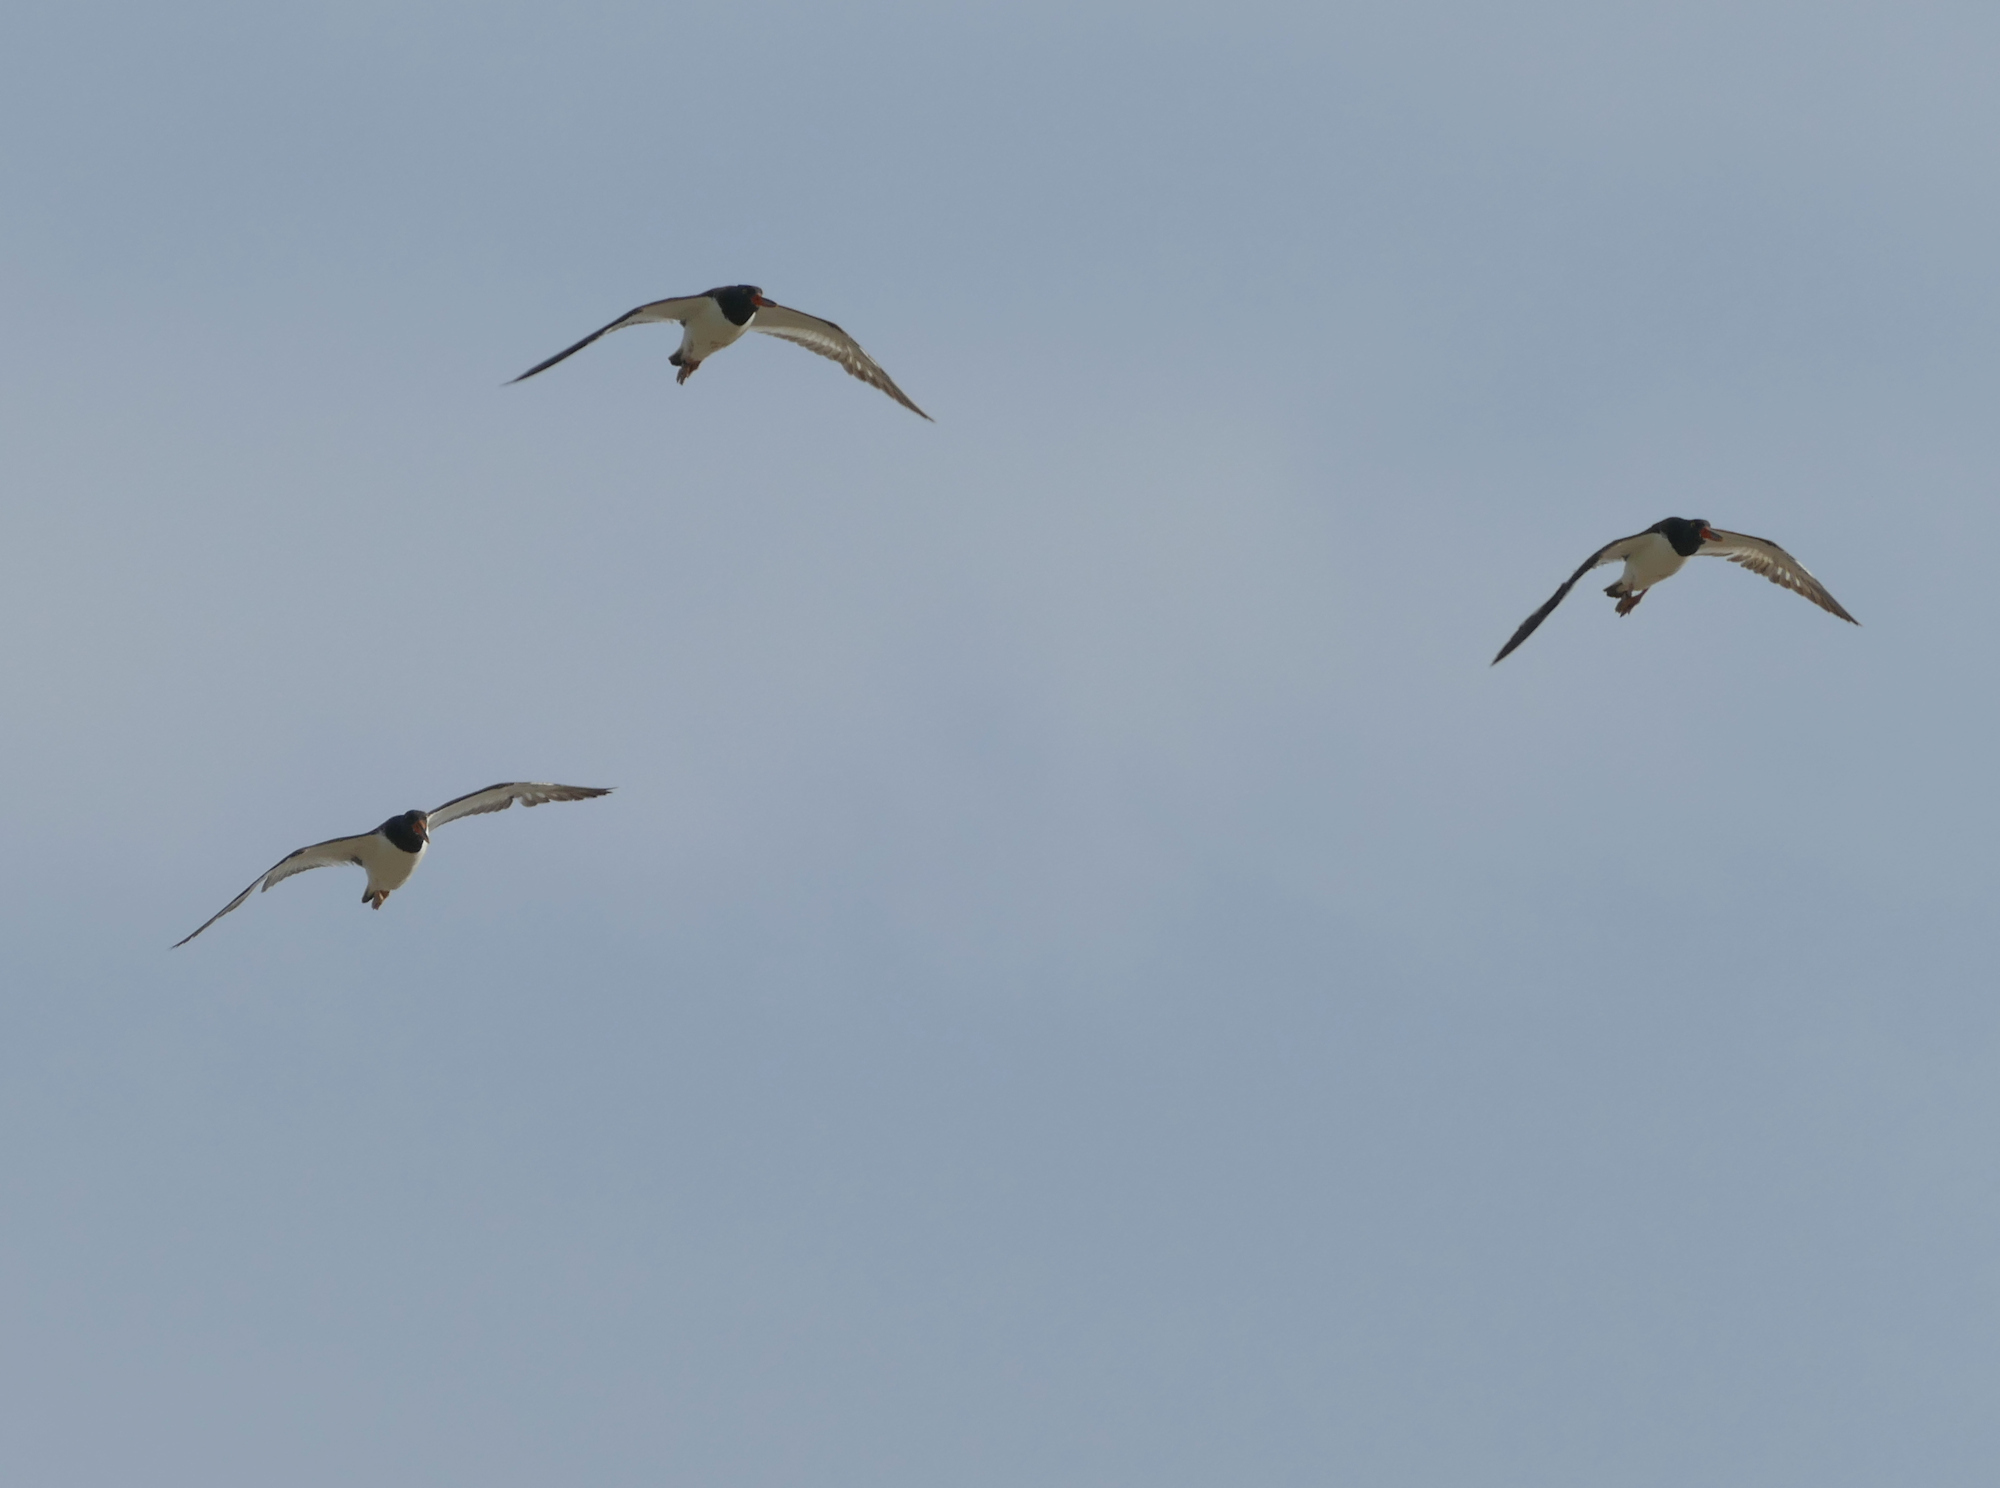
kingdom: Animalia
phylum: Chordata
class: Aves
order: Charadriiformes
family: Haematopodidae
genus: Haematopus
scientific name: Haematopus palliatus
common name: American oystercatcher
